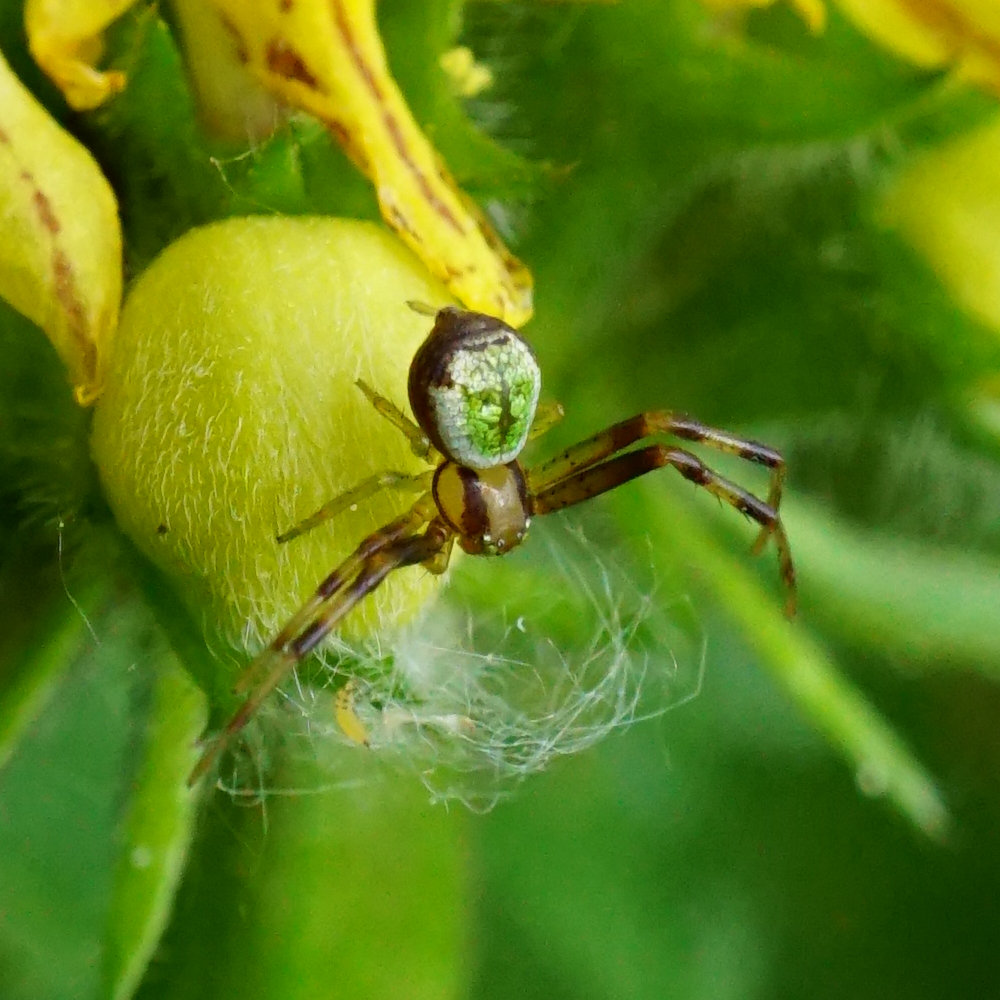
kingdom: Animalia
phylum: Arthropoda
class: Arachnida
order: Araneae
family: Thomisidae
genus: Ebrechtella
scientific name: Ebrechtella tricuspidata
